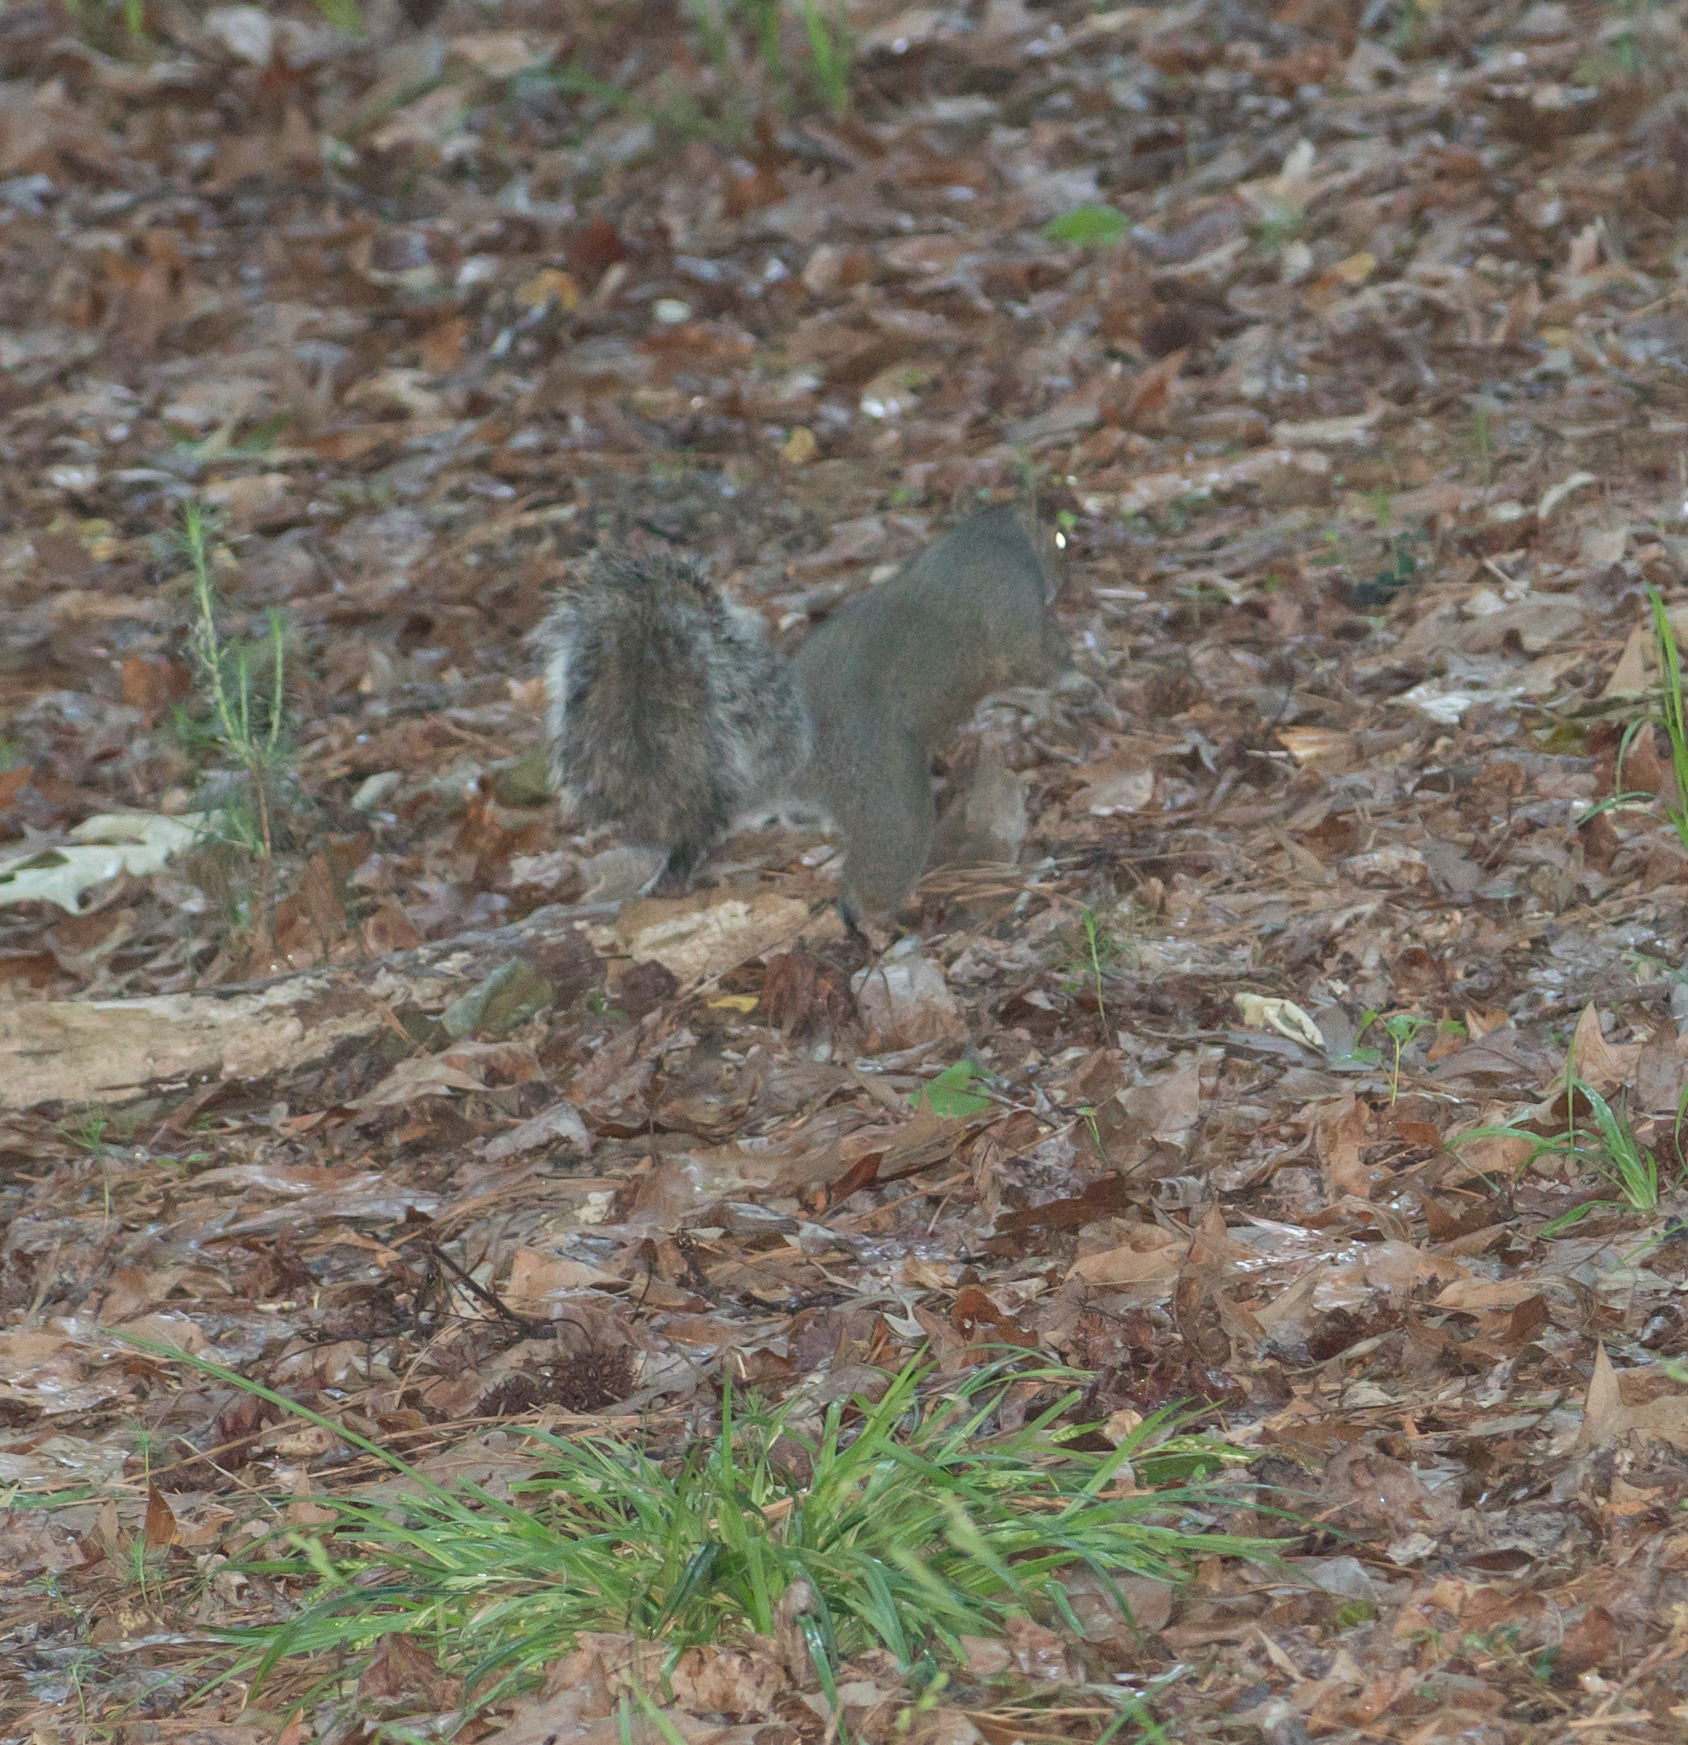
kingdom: Animalia
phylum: Chordata
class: Mammalia
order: Rodentia
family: Sciuridae
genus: Sciurus
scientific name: Sciurus carolinensis
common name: Eastern gray squirrel
